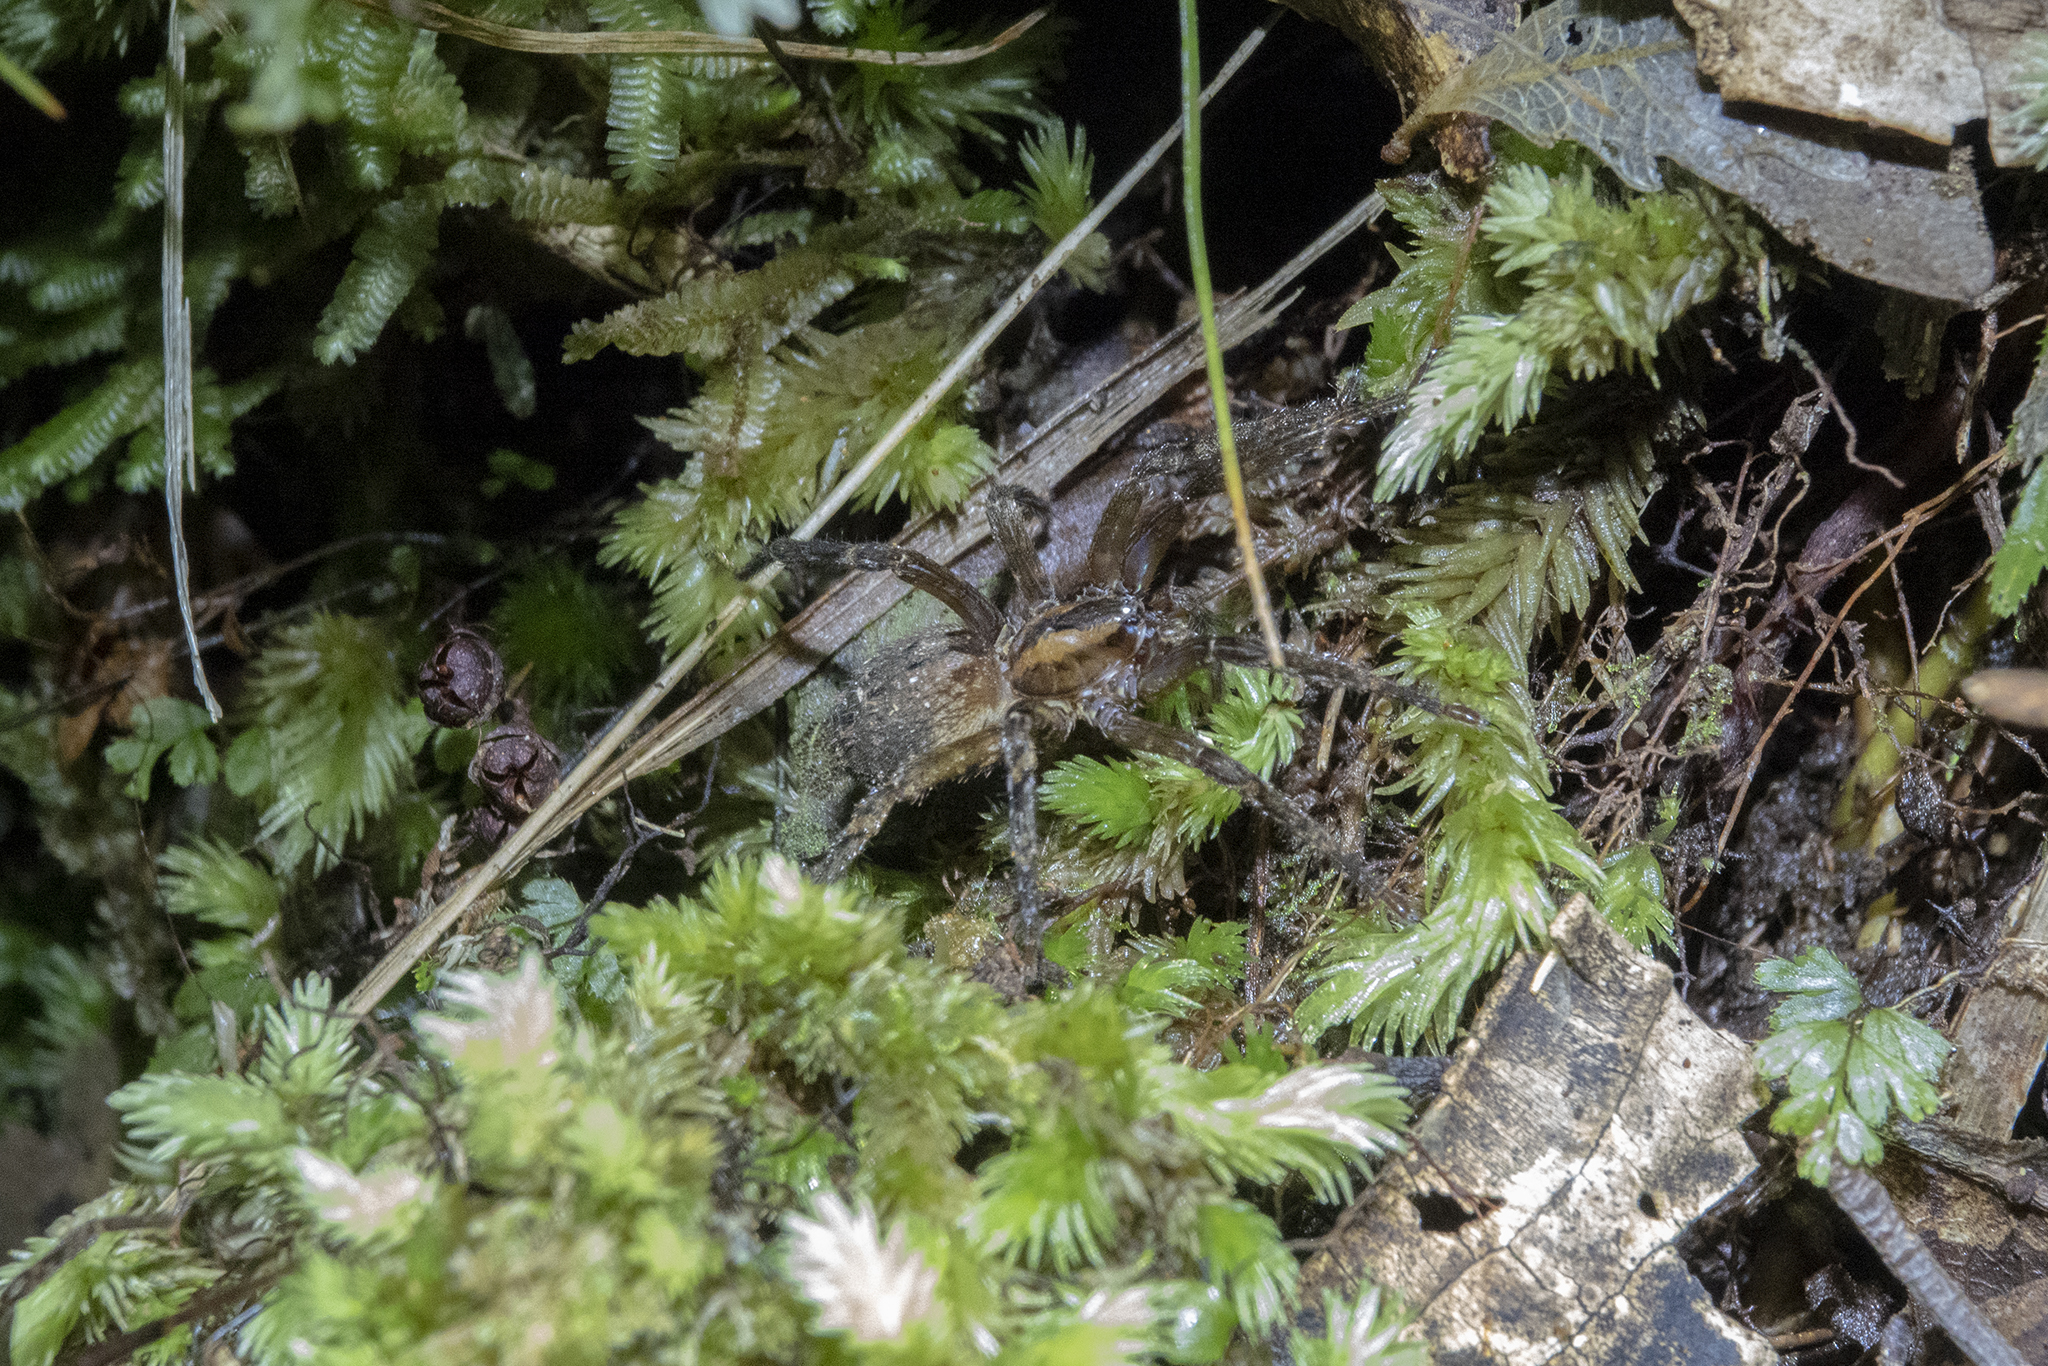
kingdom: Animalia
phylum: Arthropoda
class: Arachnida
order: Araneae
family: Gradungulidae
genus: Gradungula
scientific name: Gradungula sorenseni
